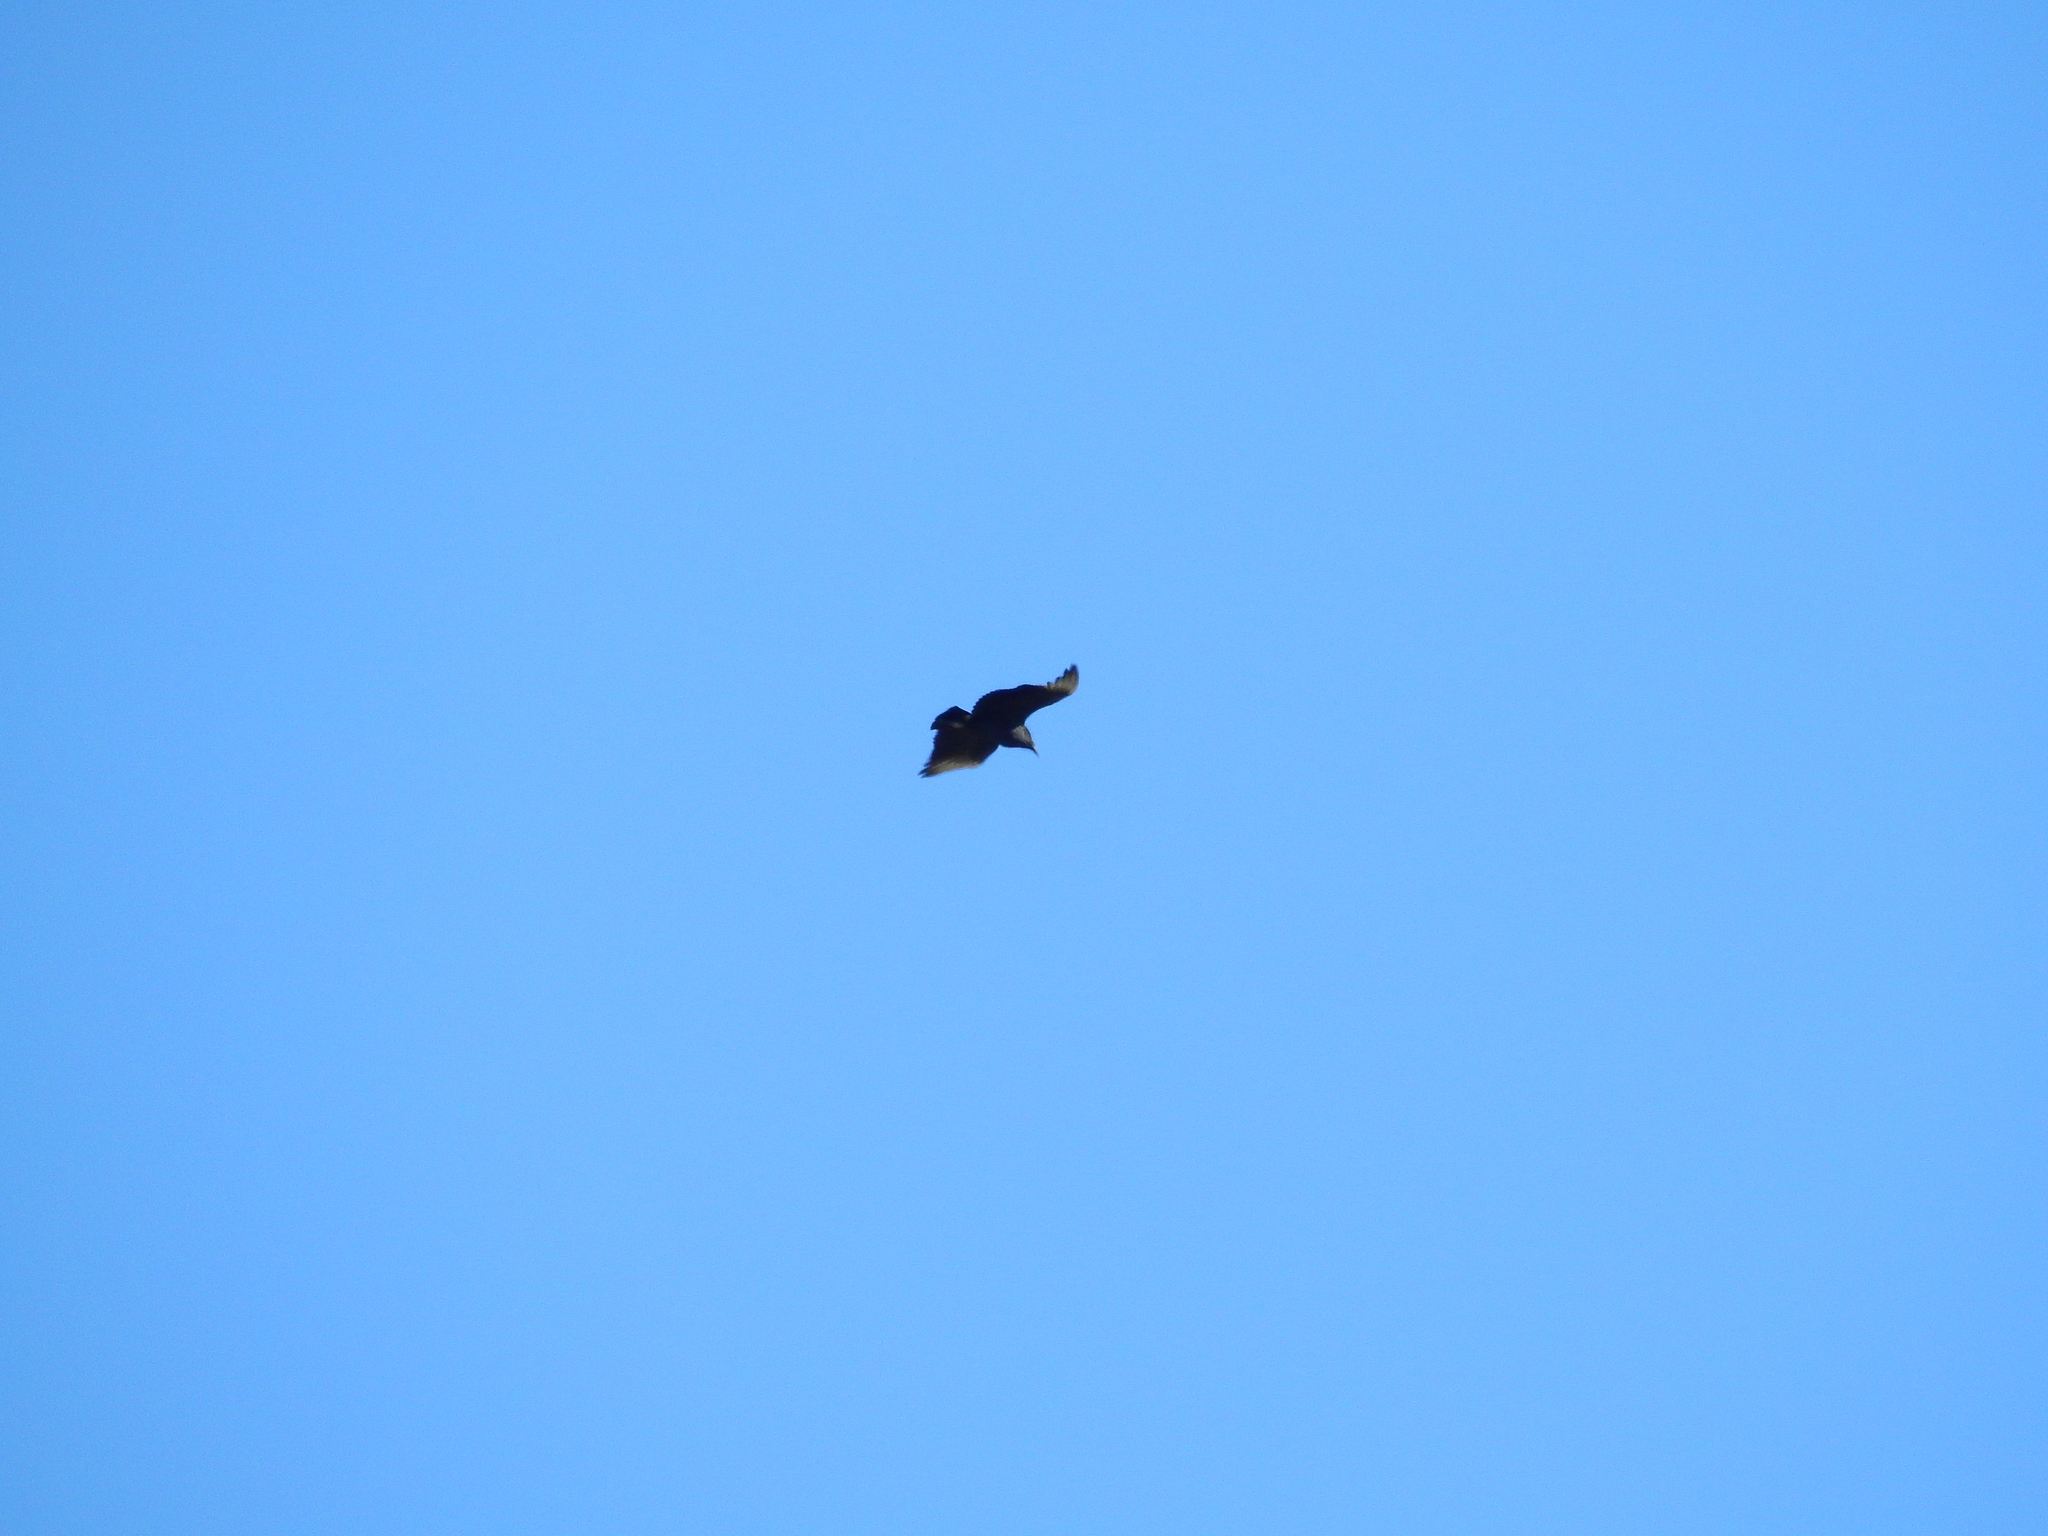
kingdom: Animalia
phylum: Chordata
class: Aves
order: Accipitriformes
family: Cathartidae
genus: Coragyps
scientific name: Coragyps atratus
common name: Black vulture
